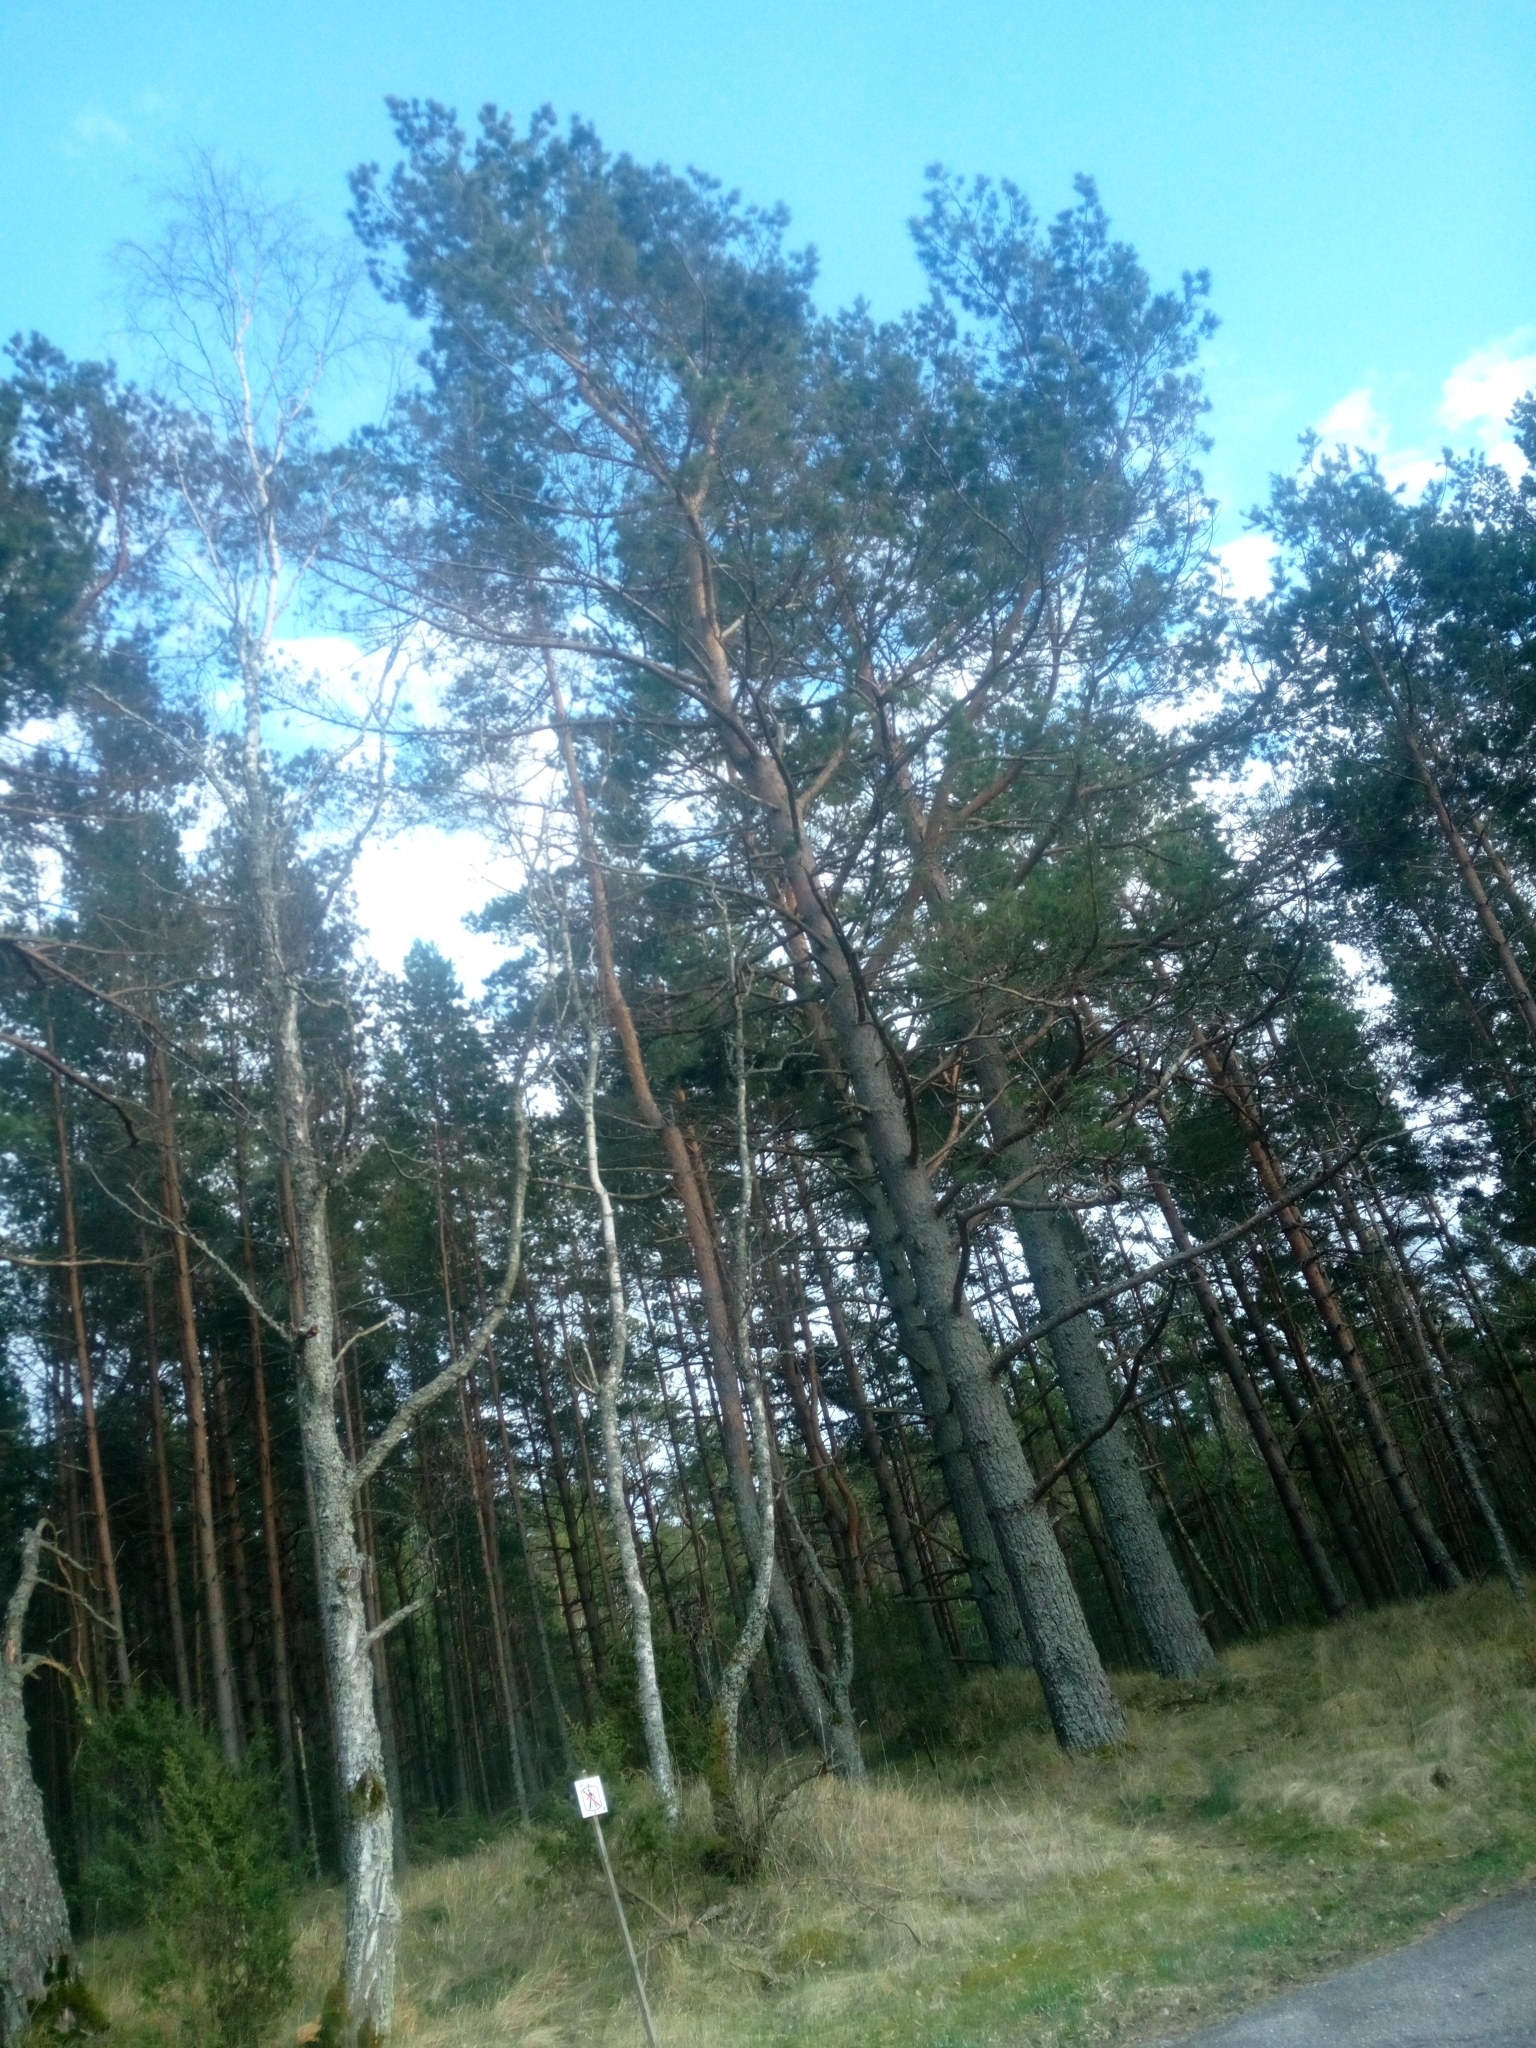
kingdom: Plantae
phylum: Tracheophyta
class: Pinopsida
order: Pinales
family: Pinaceae
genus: Pinus
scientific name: Pinus sylvestris
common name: Scots pine
